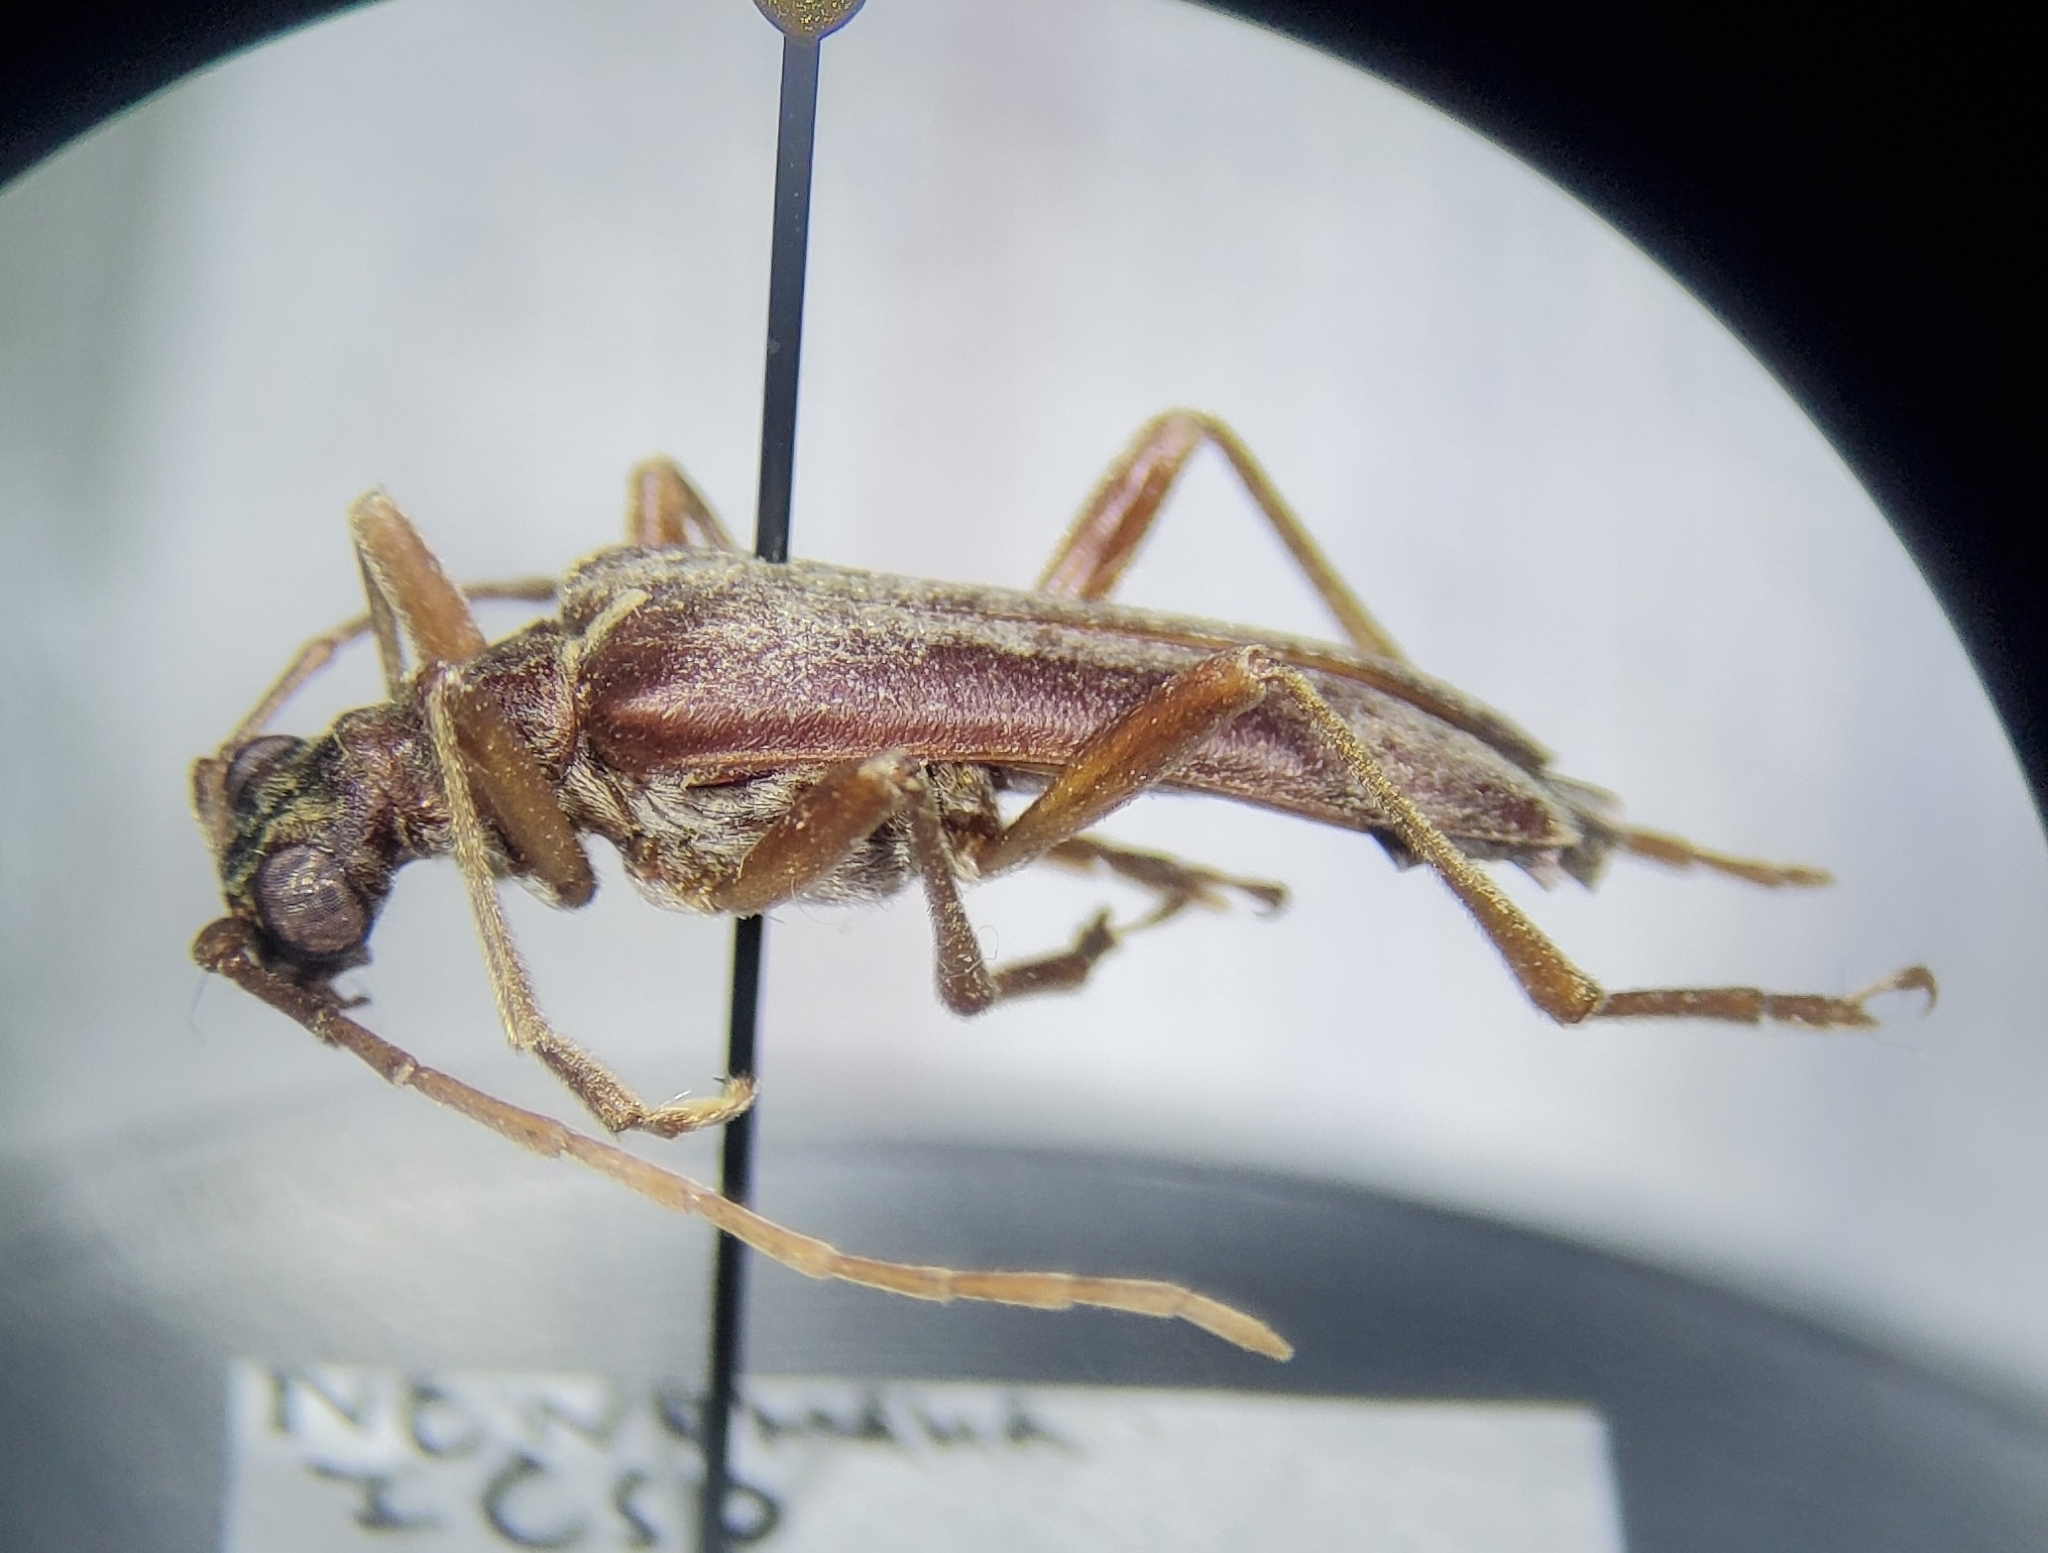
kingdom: Animalia
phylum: Arthropoda
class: Insecta
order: Coleoptera
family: Cerambycidae
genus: Stenocorus
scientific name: Stenocorus cinnamopterus
